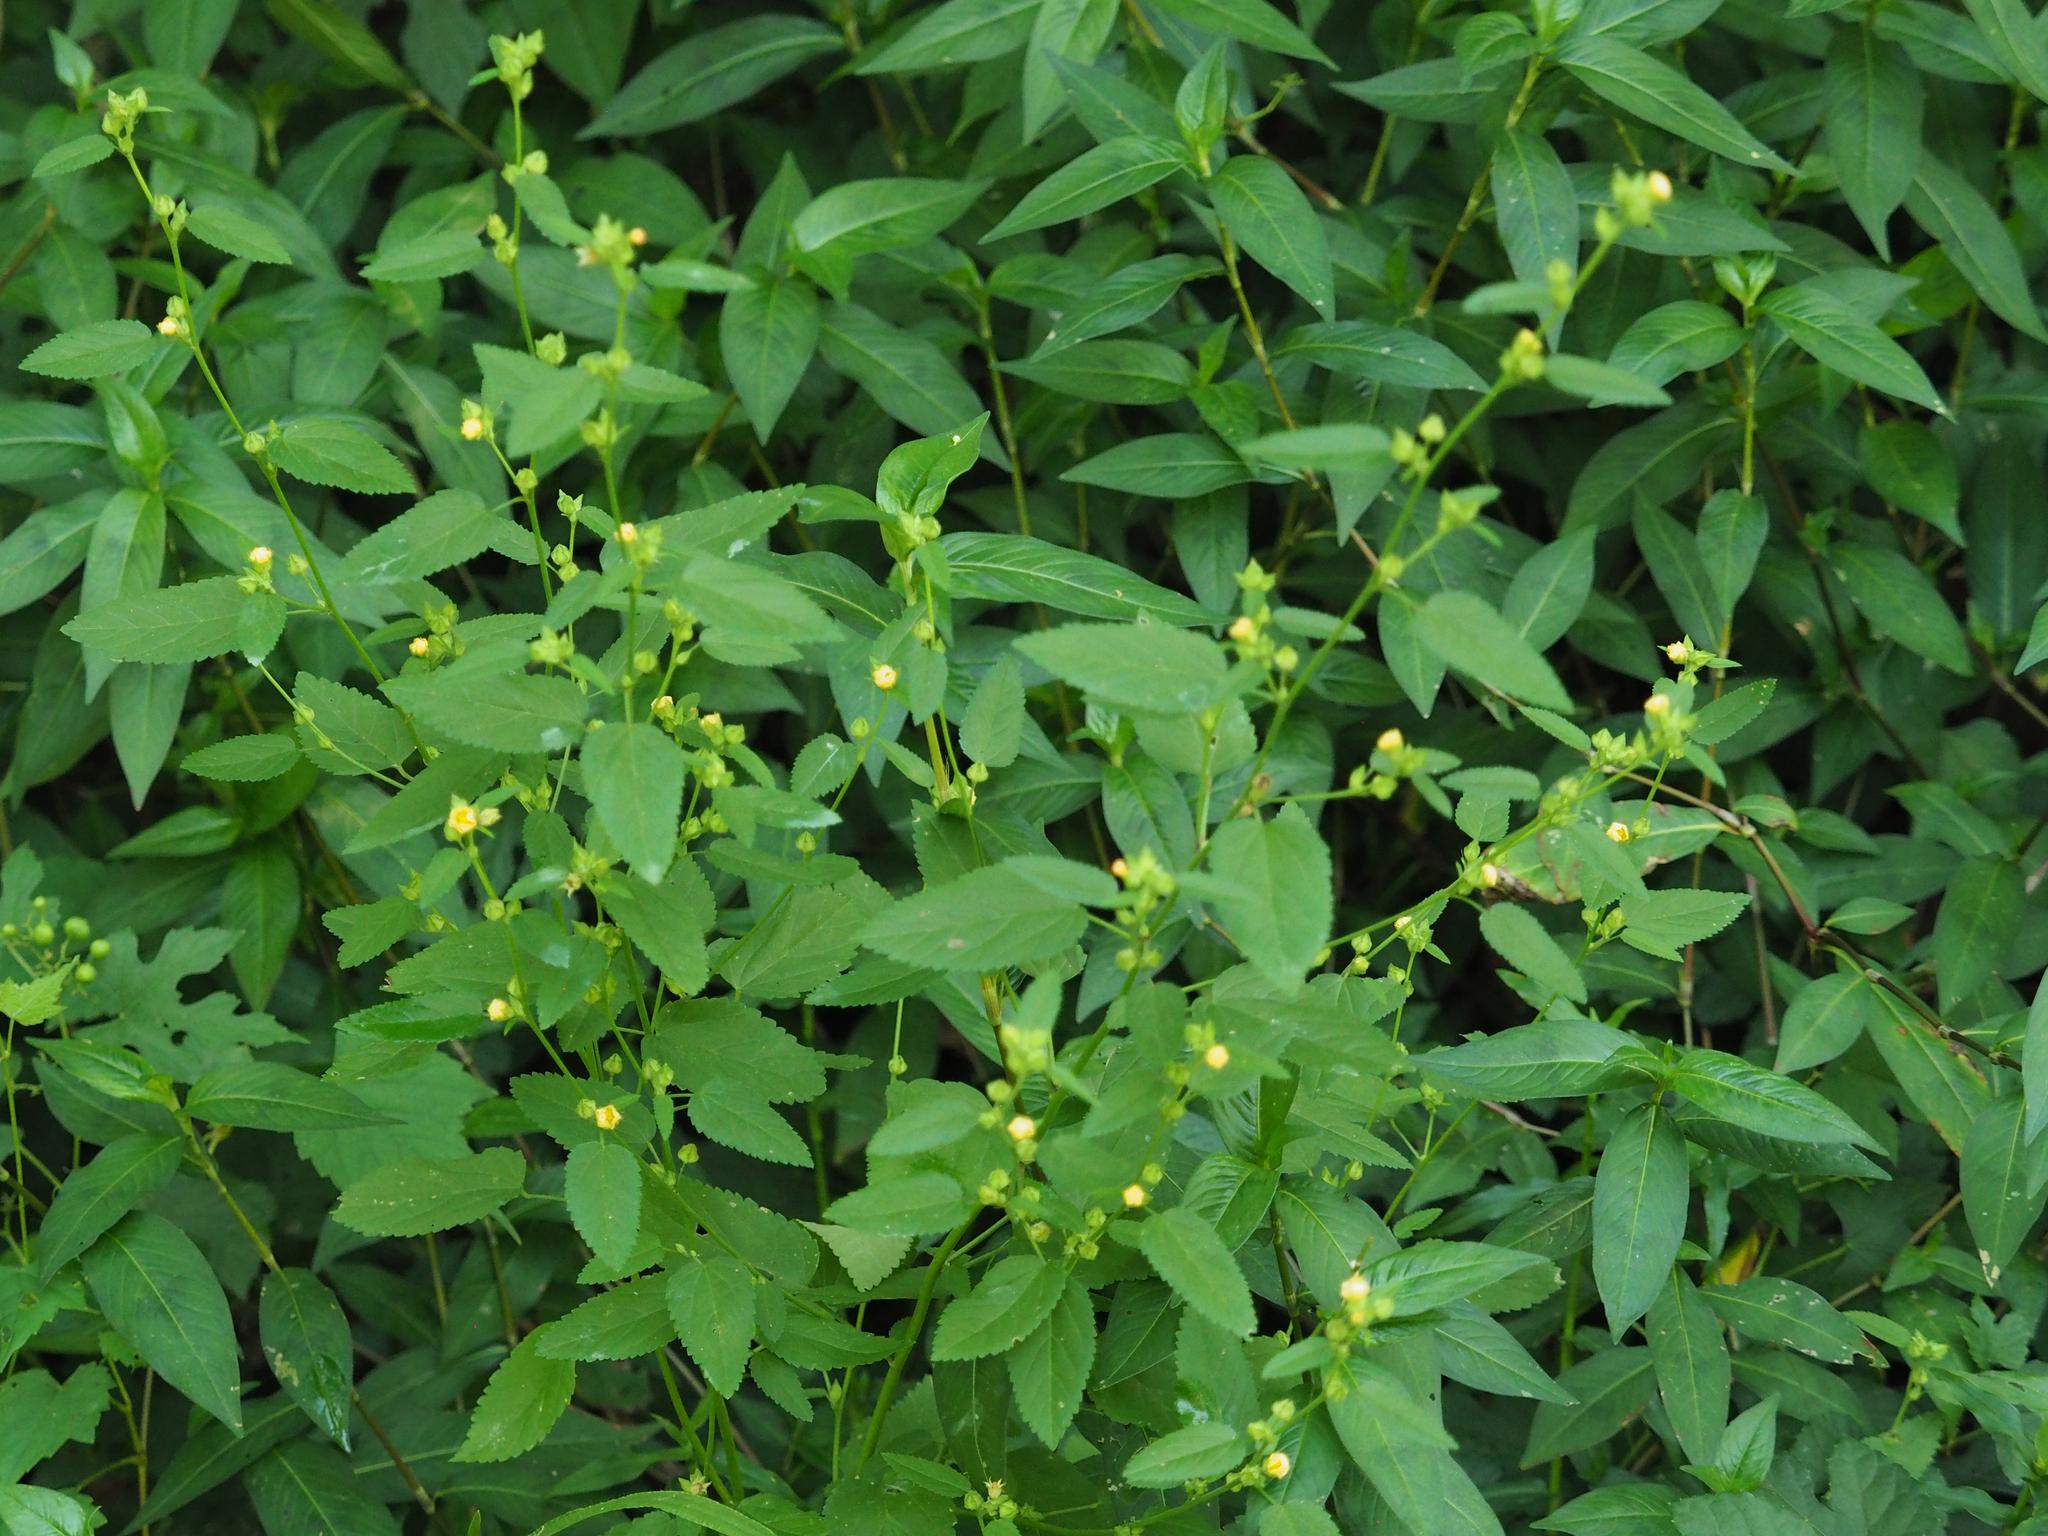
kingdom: Plantae
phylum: Tracheophyta
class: Magnoliopsida
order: Malvales
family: Malvaceae
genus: Sida
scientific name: Sida spinosa
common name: Prickly fanpetals
